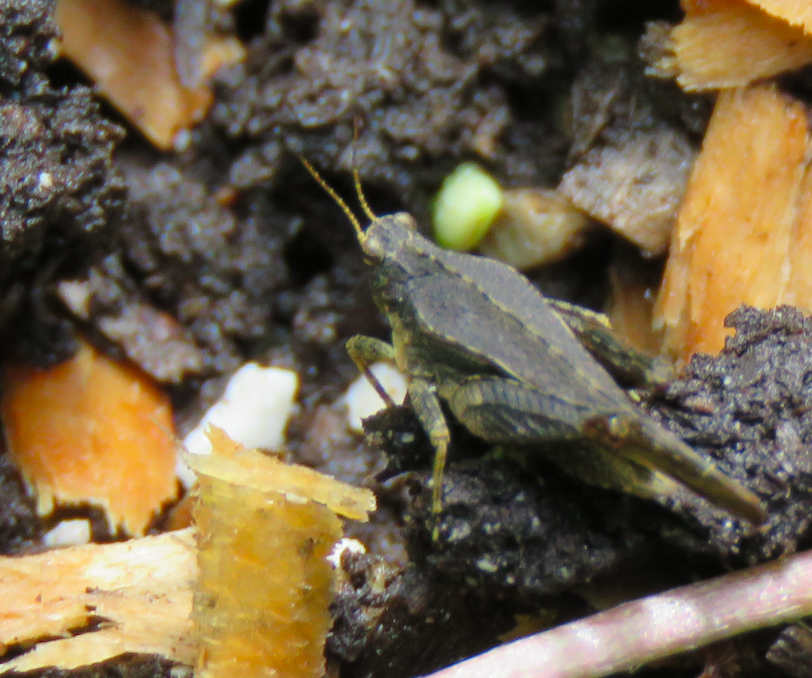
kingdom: Animalia
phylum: Arthropoda
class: Insecta
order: Orthoptera
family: Tetrigidae
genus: Tetrix
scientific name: Tetrix subulata
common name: Slender ground-hopper
